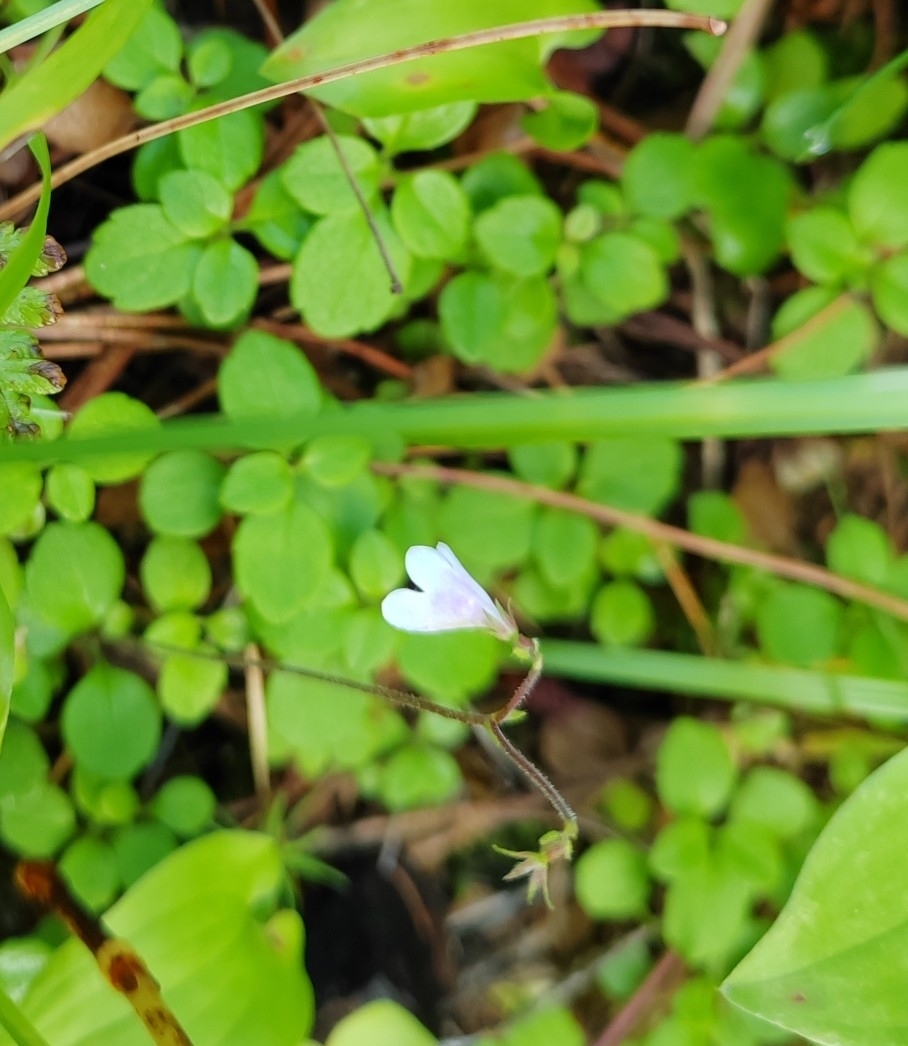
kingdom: Plantae
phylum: Tracheophyta
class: Magnoliopsida
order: Dipsacales
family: Caprifoliaceae
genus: Linnaea
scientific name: Linnaea borealis
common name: Twinflower
